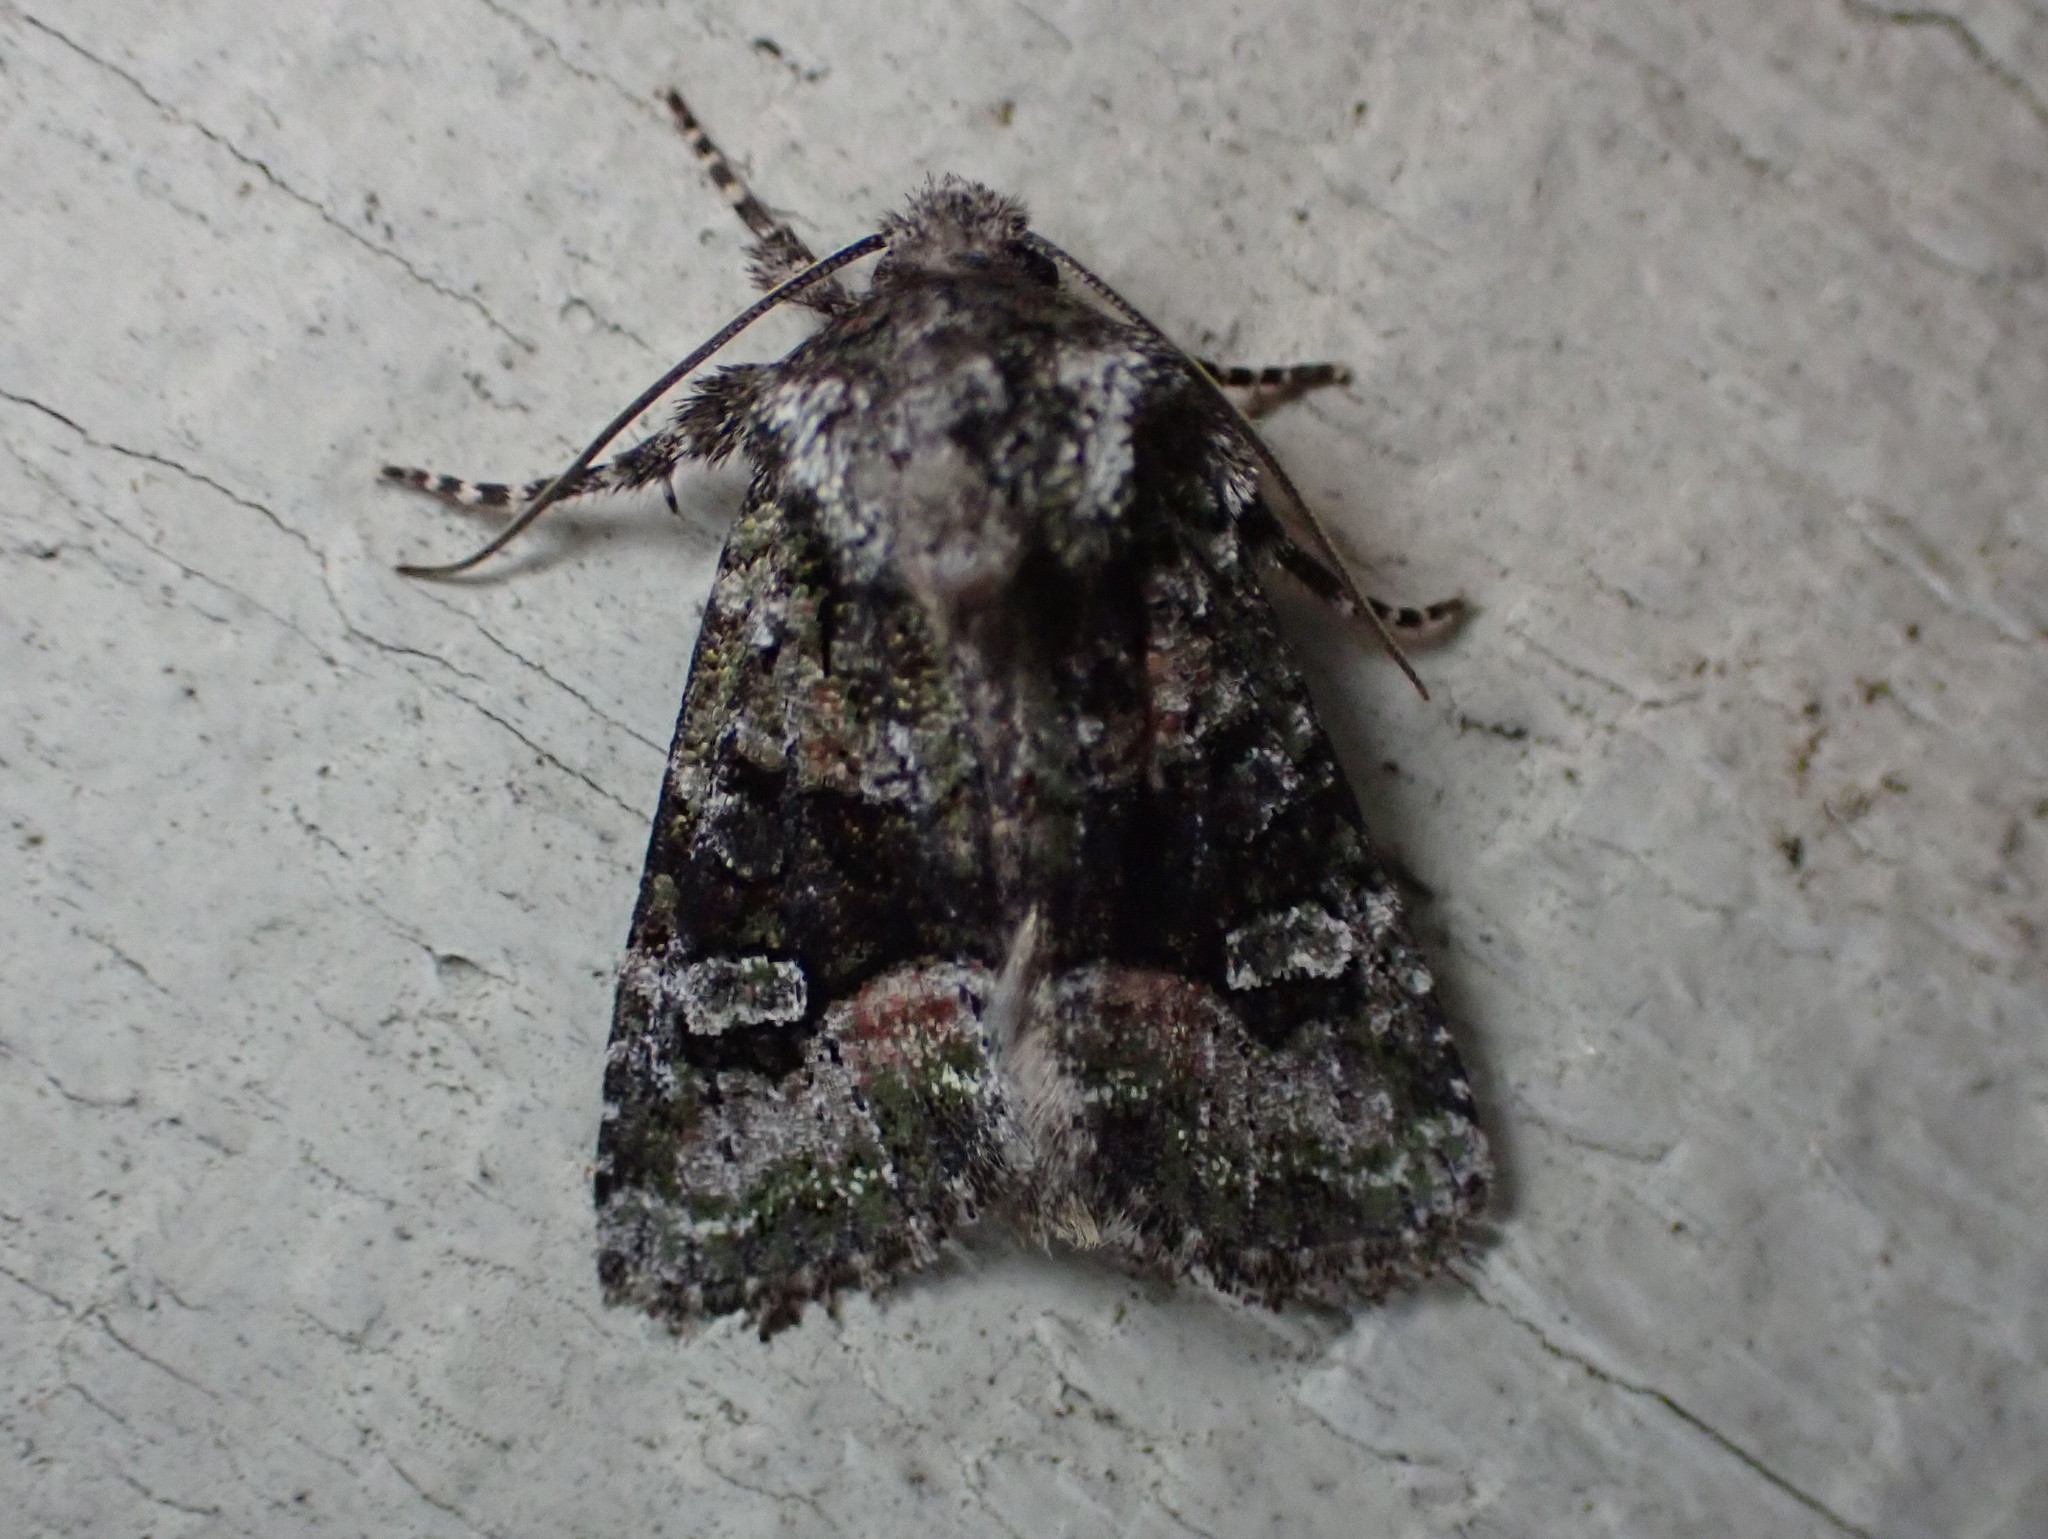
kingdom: Animalia
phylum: Arthropoda
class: Insecta
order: Lepidoptera
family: Noctuidae
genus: Lacinipolia
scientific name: Lacinipolia olivacea
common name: Olive arches moth
